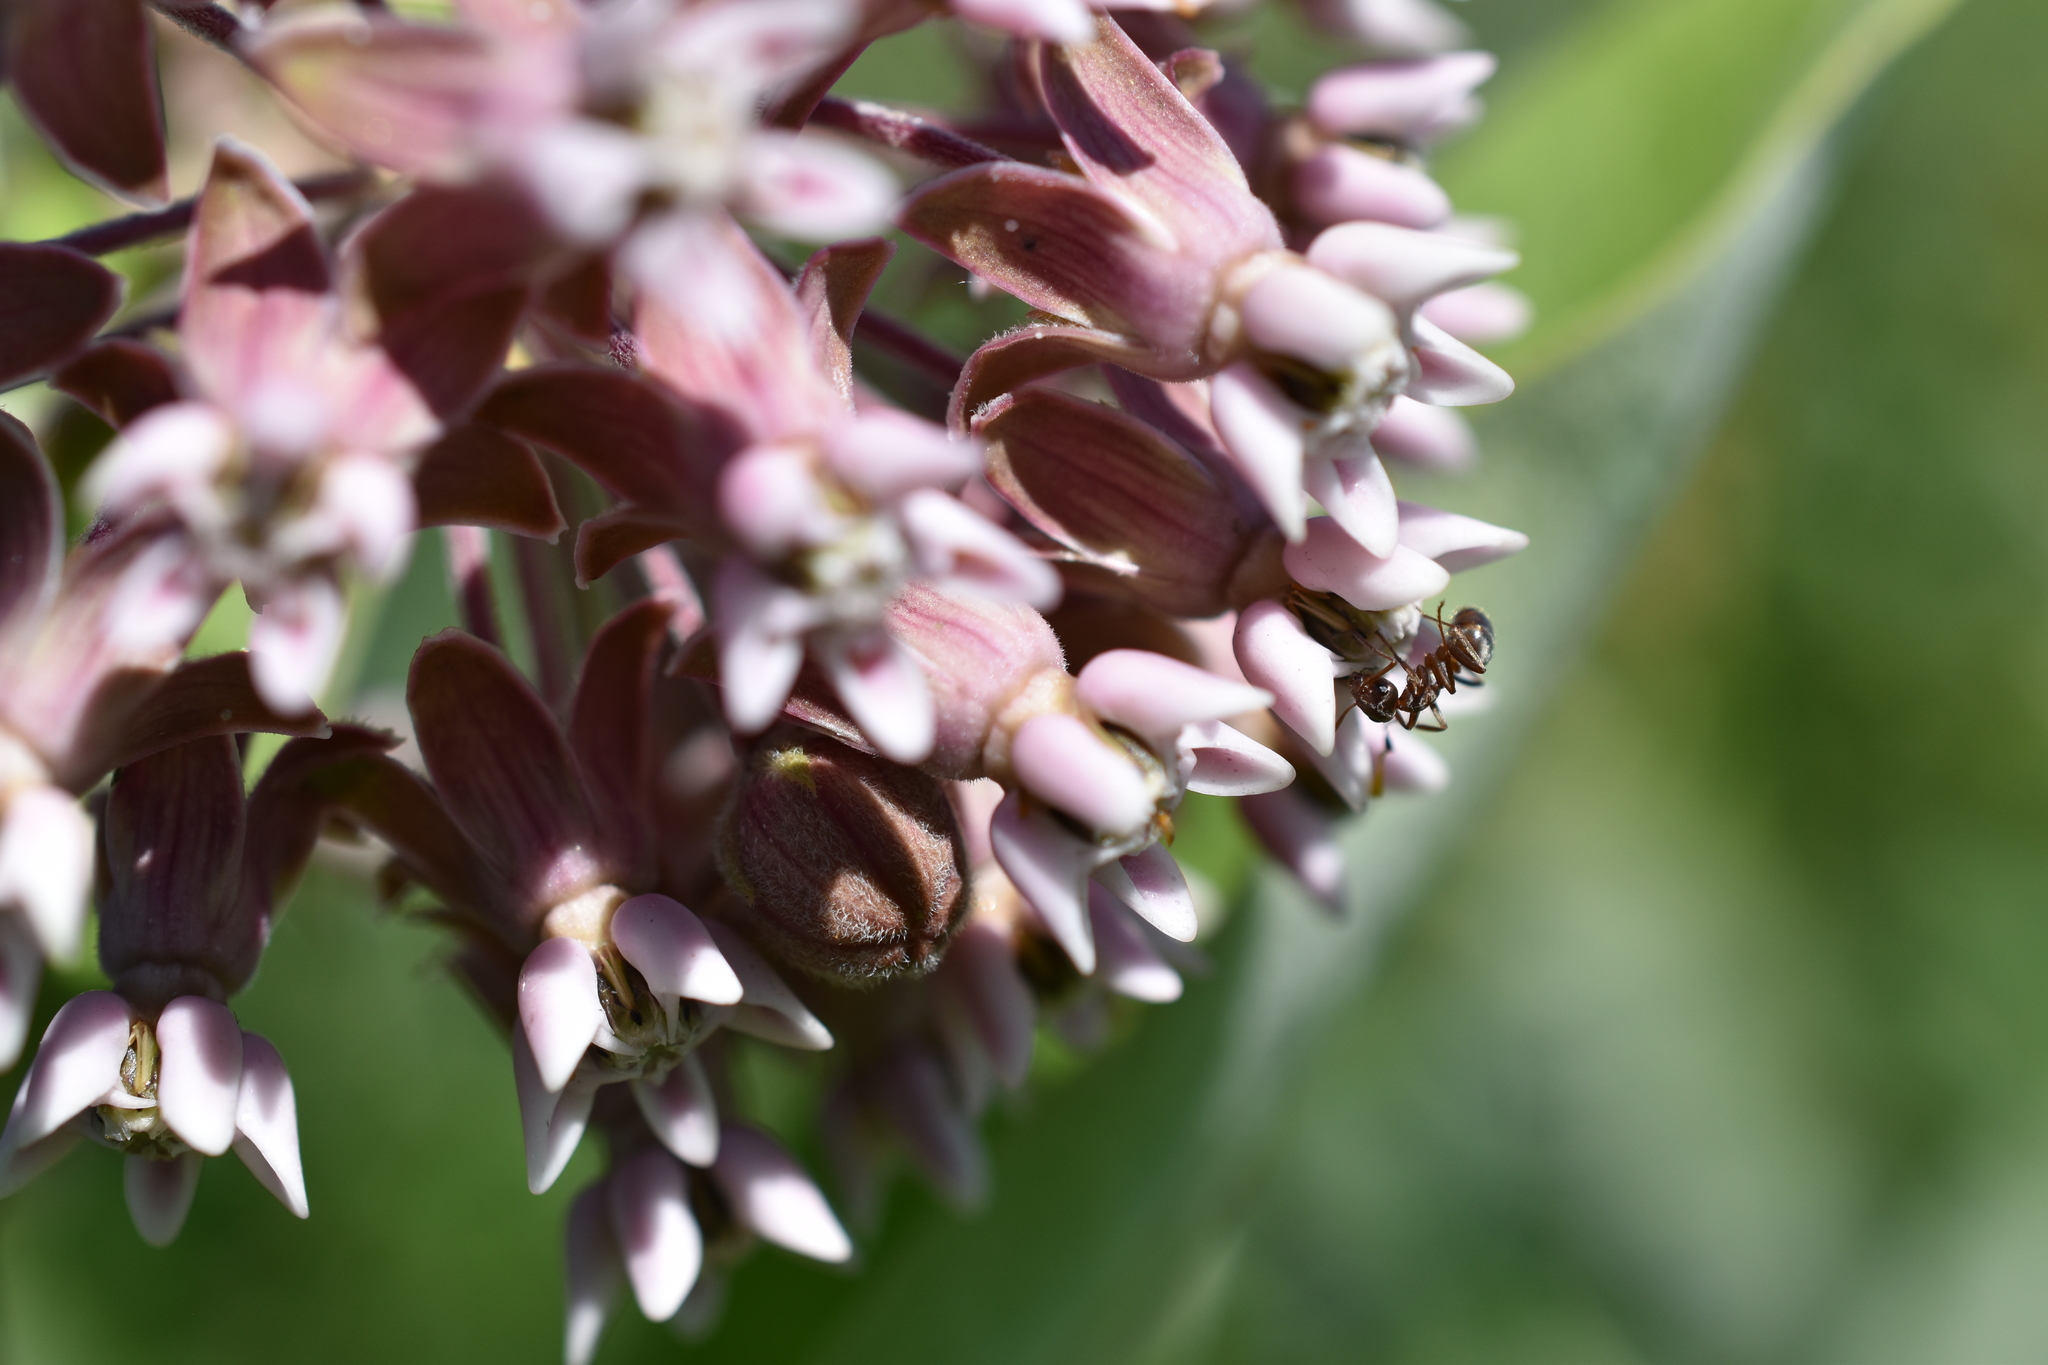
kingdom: Plantae
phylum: Tracheophyta
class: Magnoliopsida
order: Gentianales
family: Apocynaceae
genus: Asclepias
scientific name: Asclepias syriaca
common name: Common milkweed
